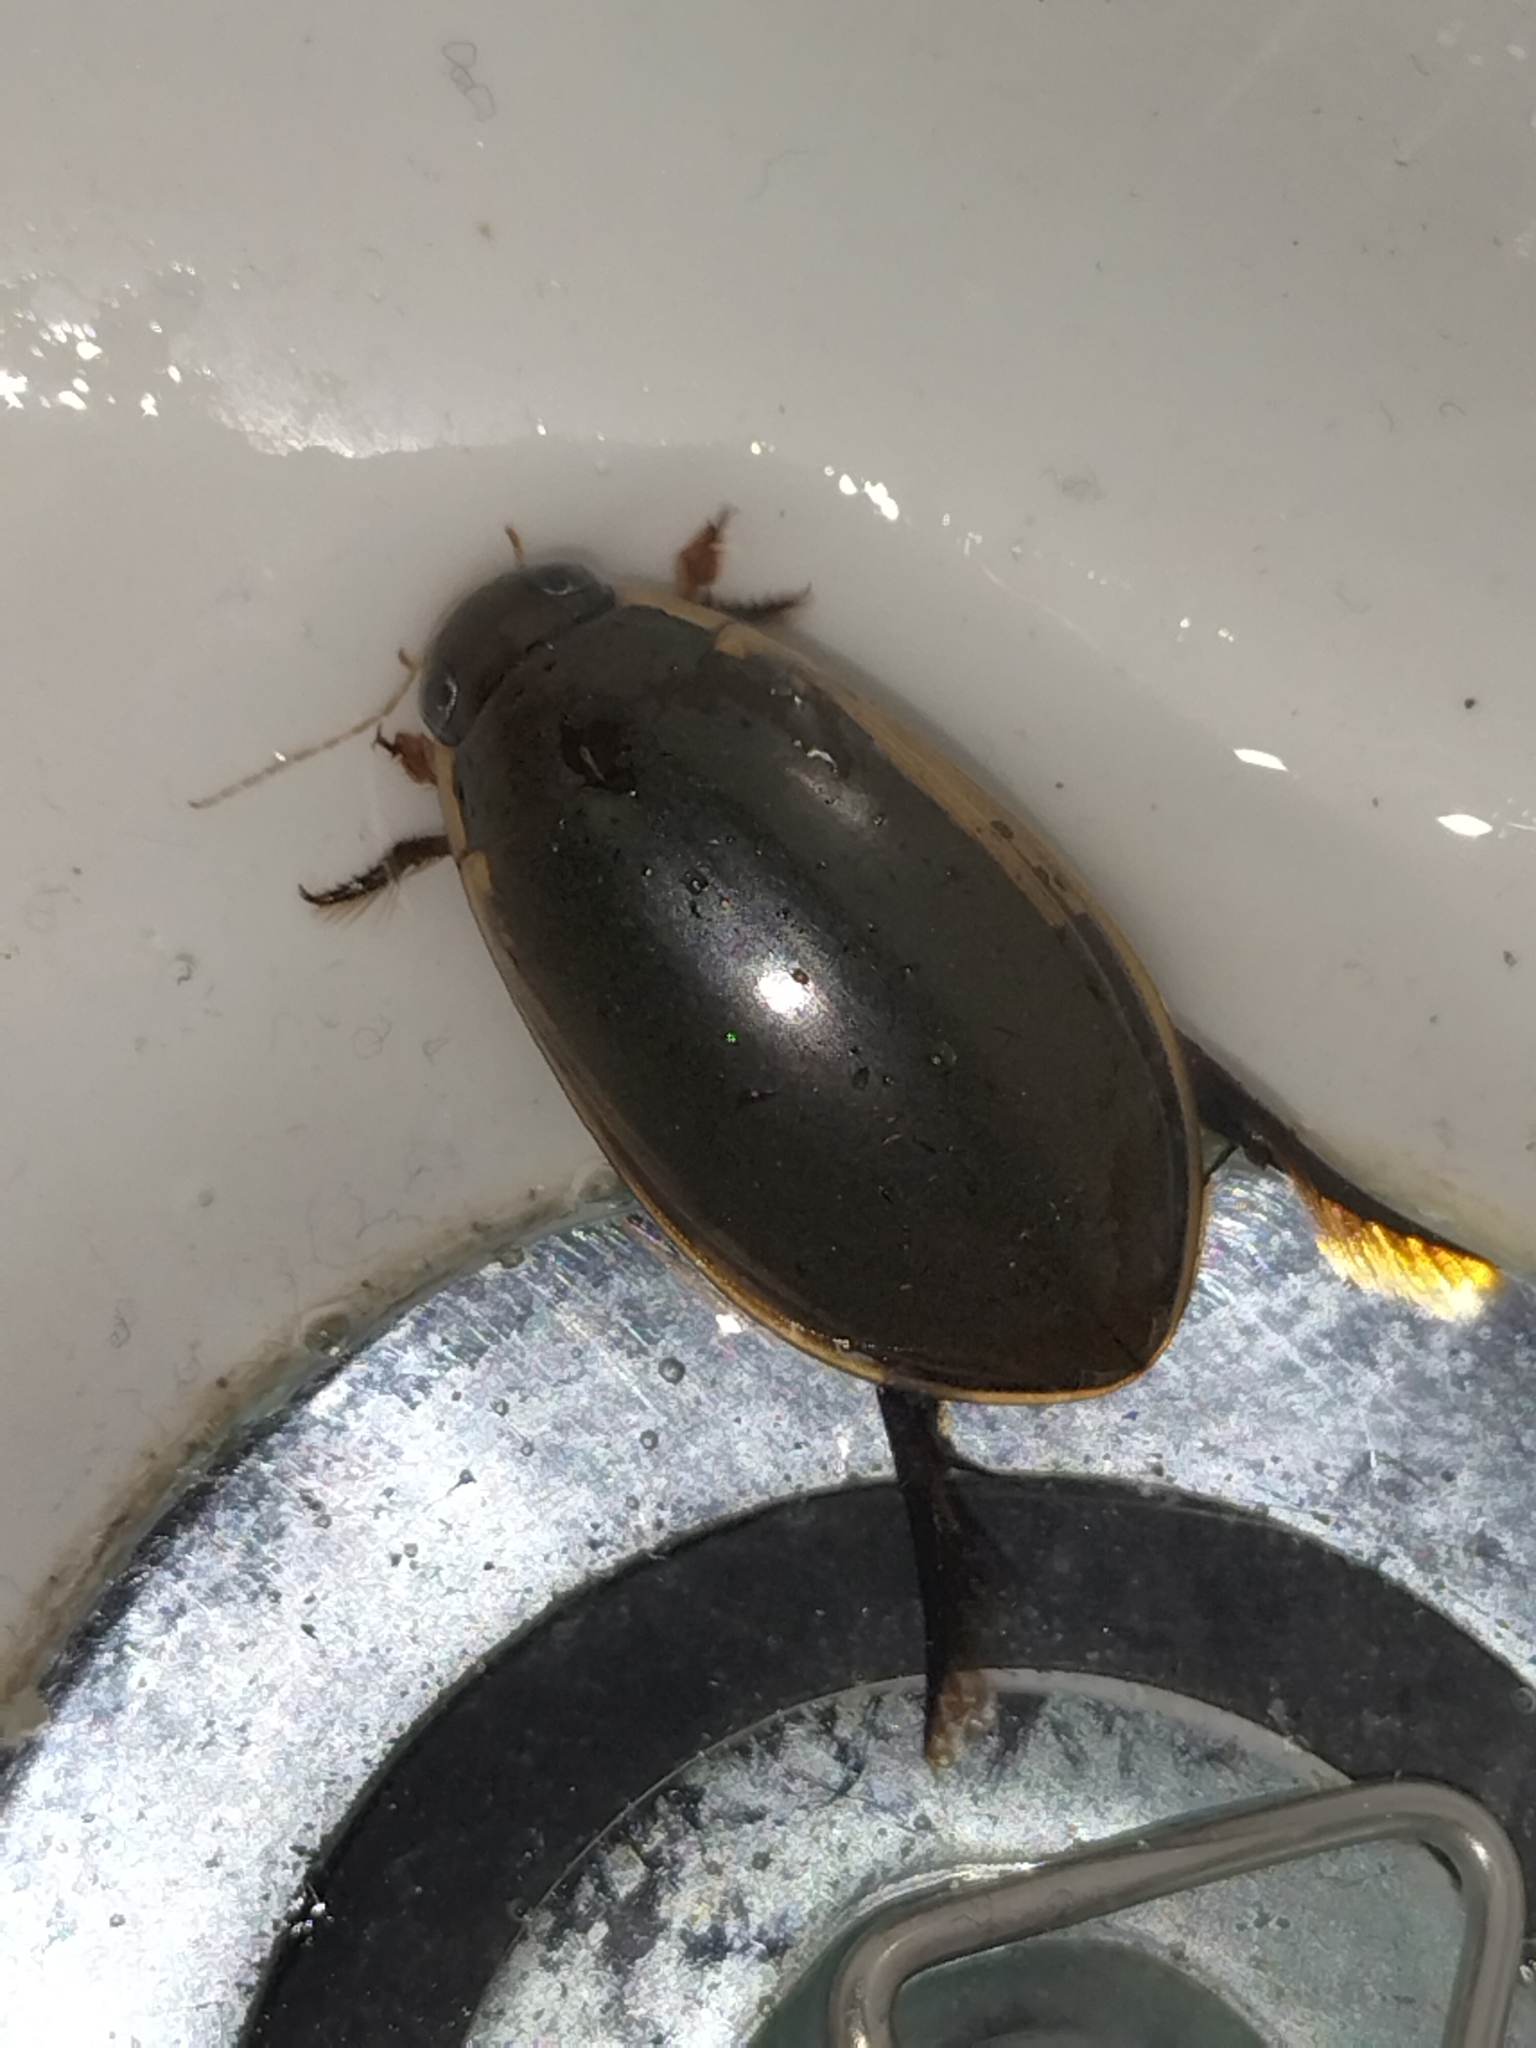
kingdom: Animalia
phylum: Arthropoda
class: Insecta
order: Coleoptera
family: Dytiscidae
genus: Cybister
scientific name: Cybister tripunctatus
